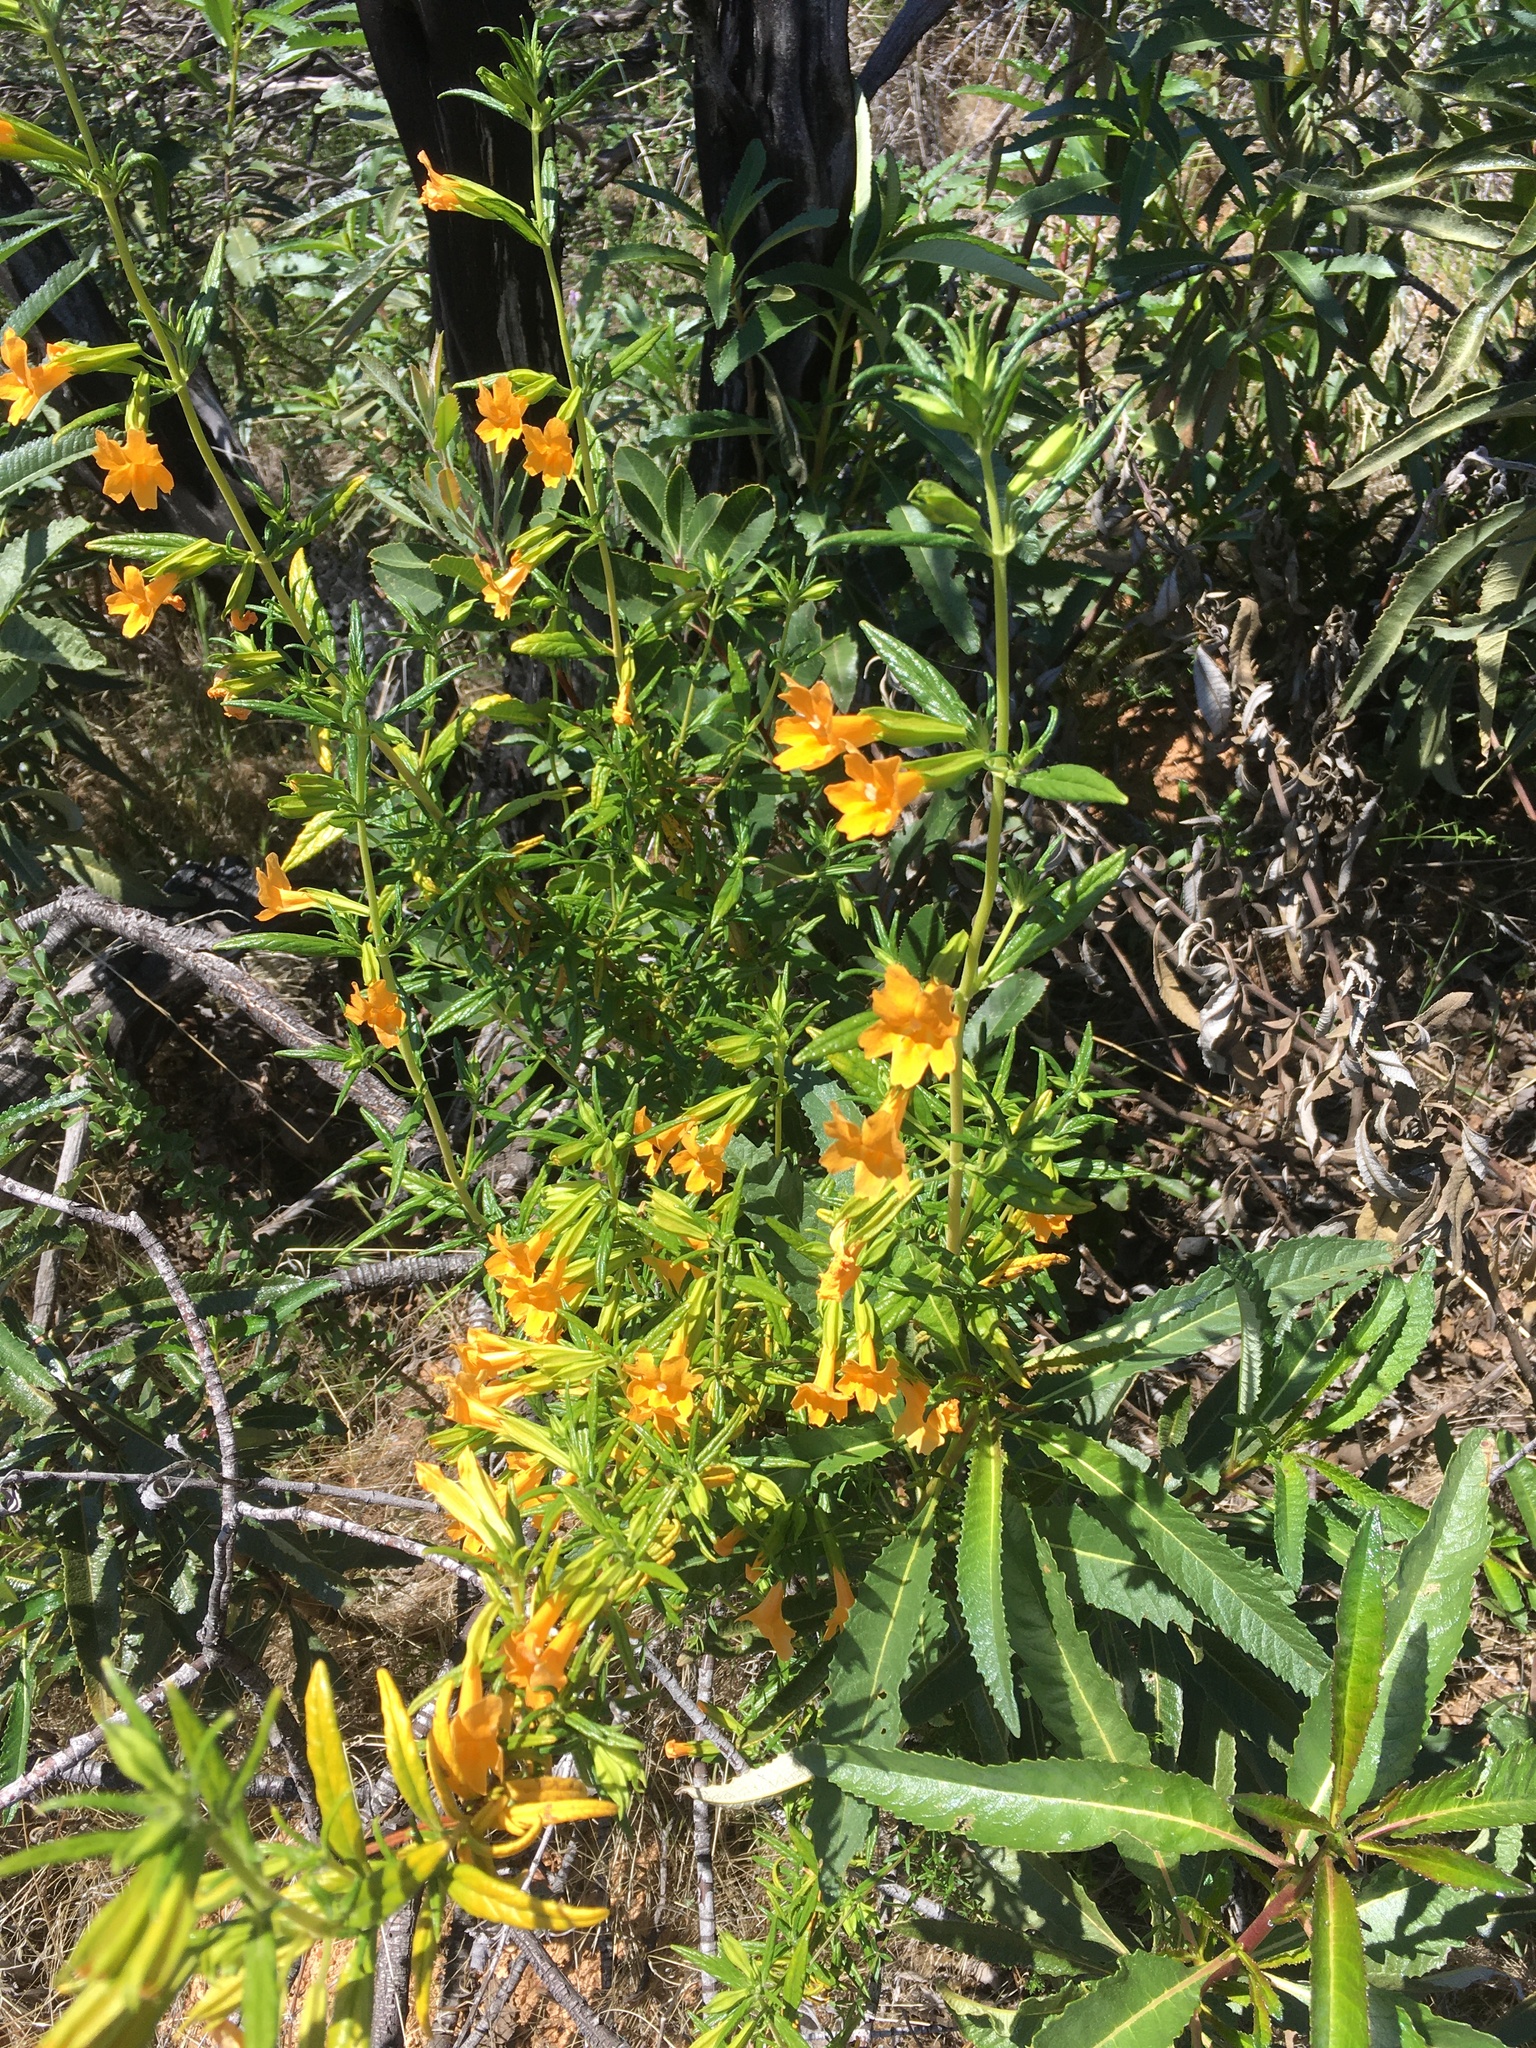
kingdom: Plantae
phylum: Tracheophyta
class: Magnoliopsida
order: Lamiales
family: Phrymaceae
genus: Diplacus
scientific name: Diplacus aurantiacus
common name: Bush monkey-flower
